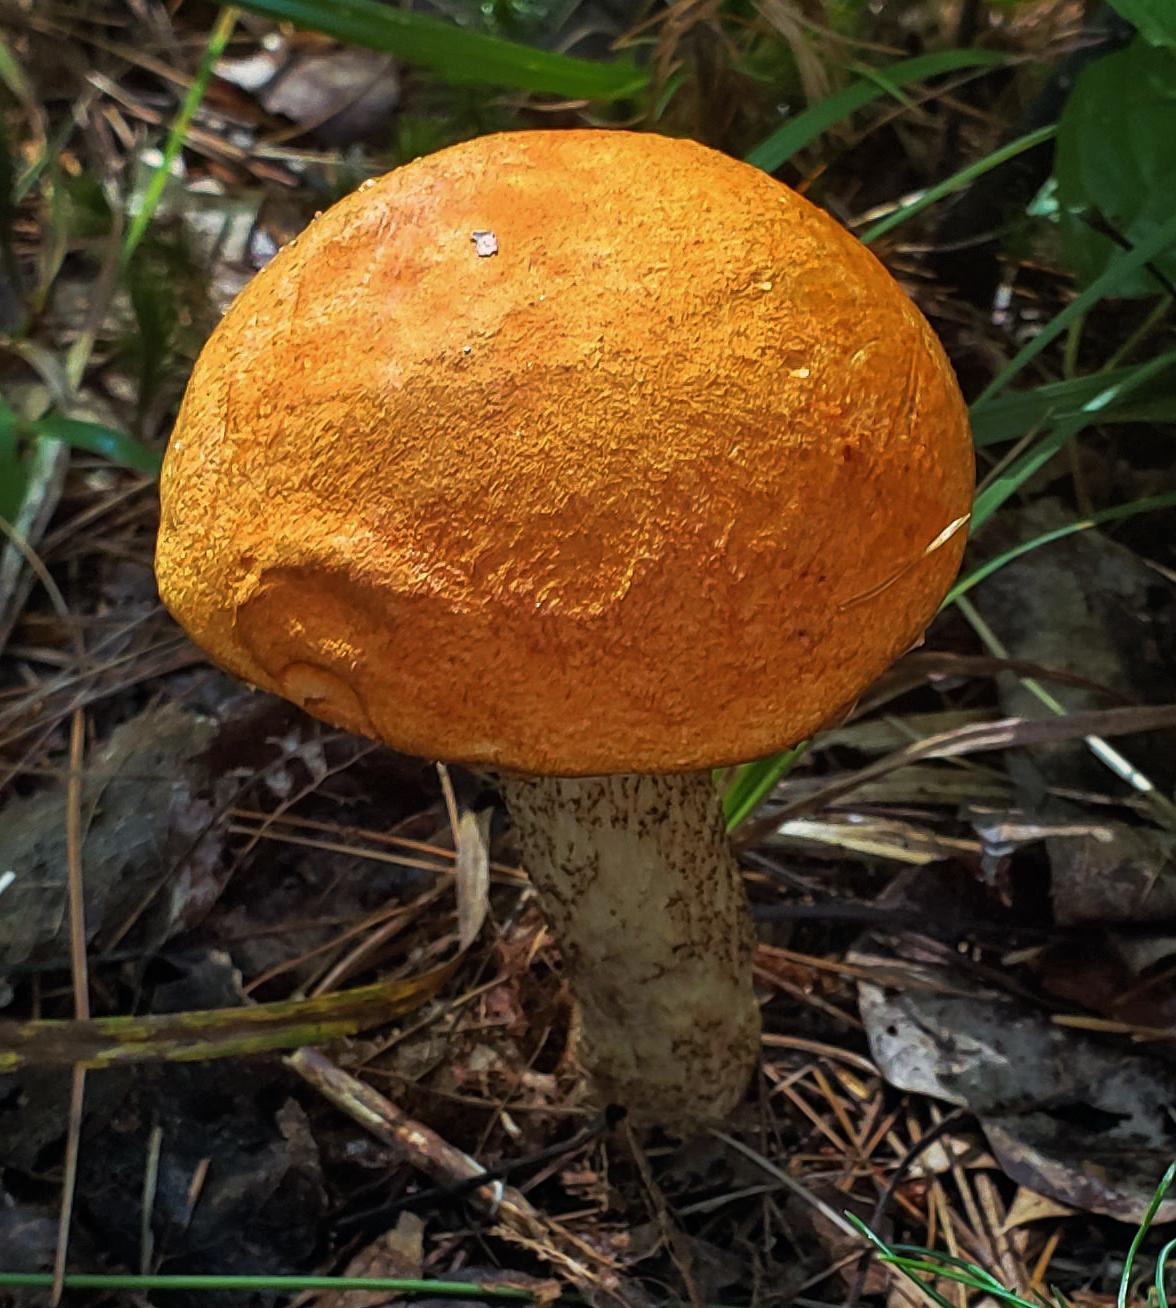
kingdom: Fungi
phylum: Basidiomycota
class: Agaricomycetes
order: Boletales
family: Boletaceae
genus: Leccinum
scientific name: Leccinum vulpinum
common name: Foxy bolete
